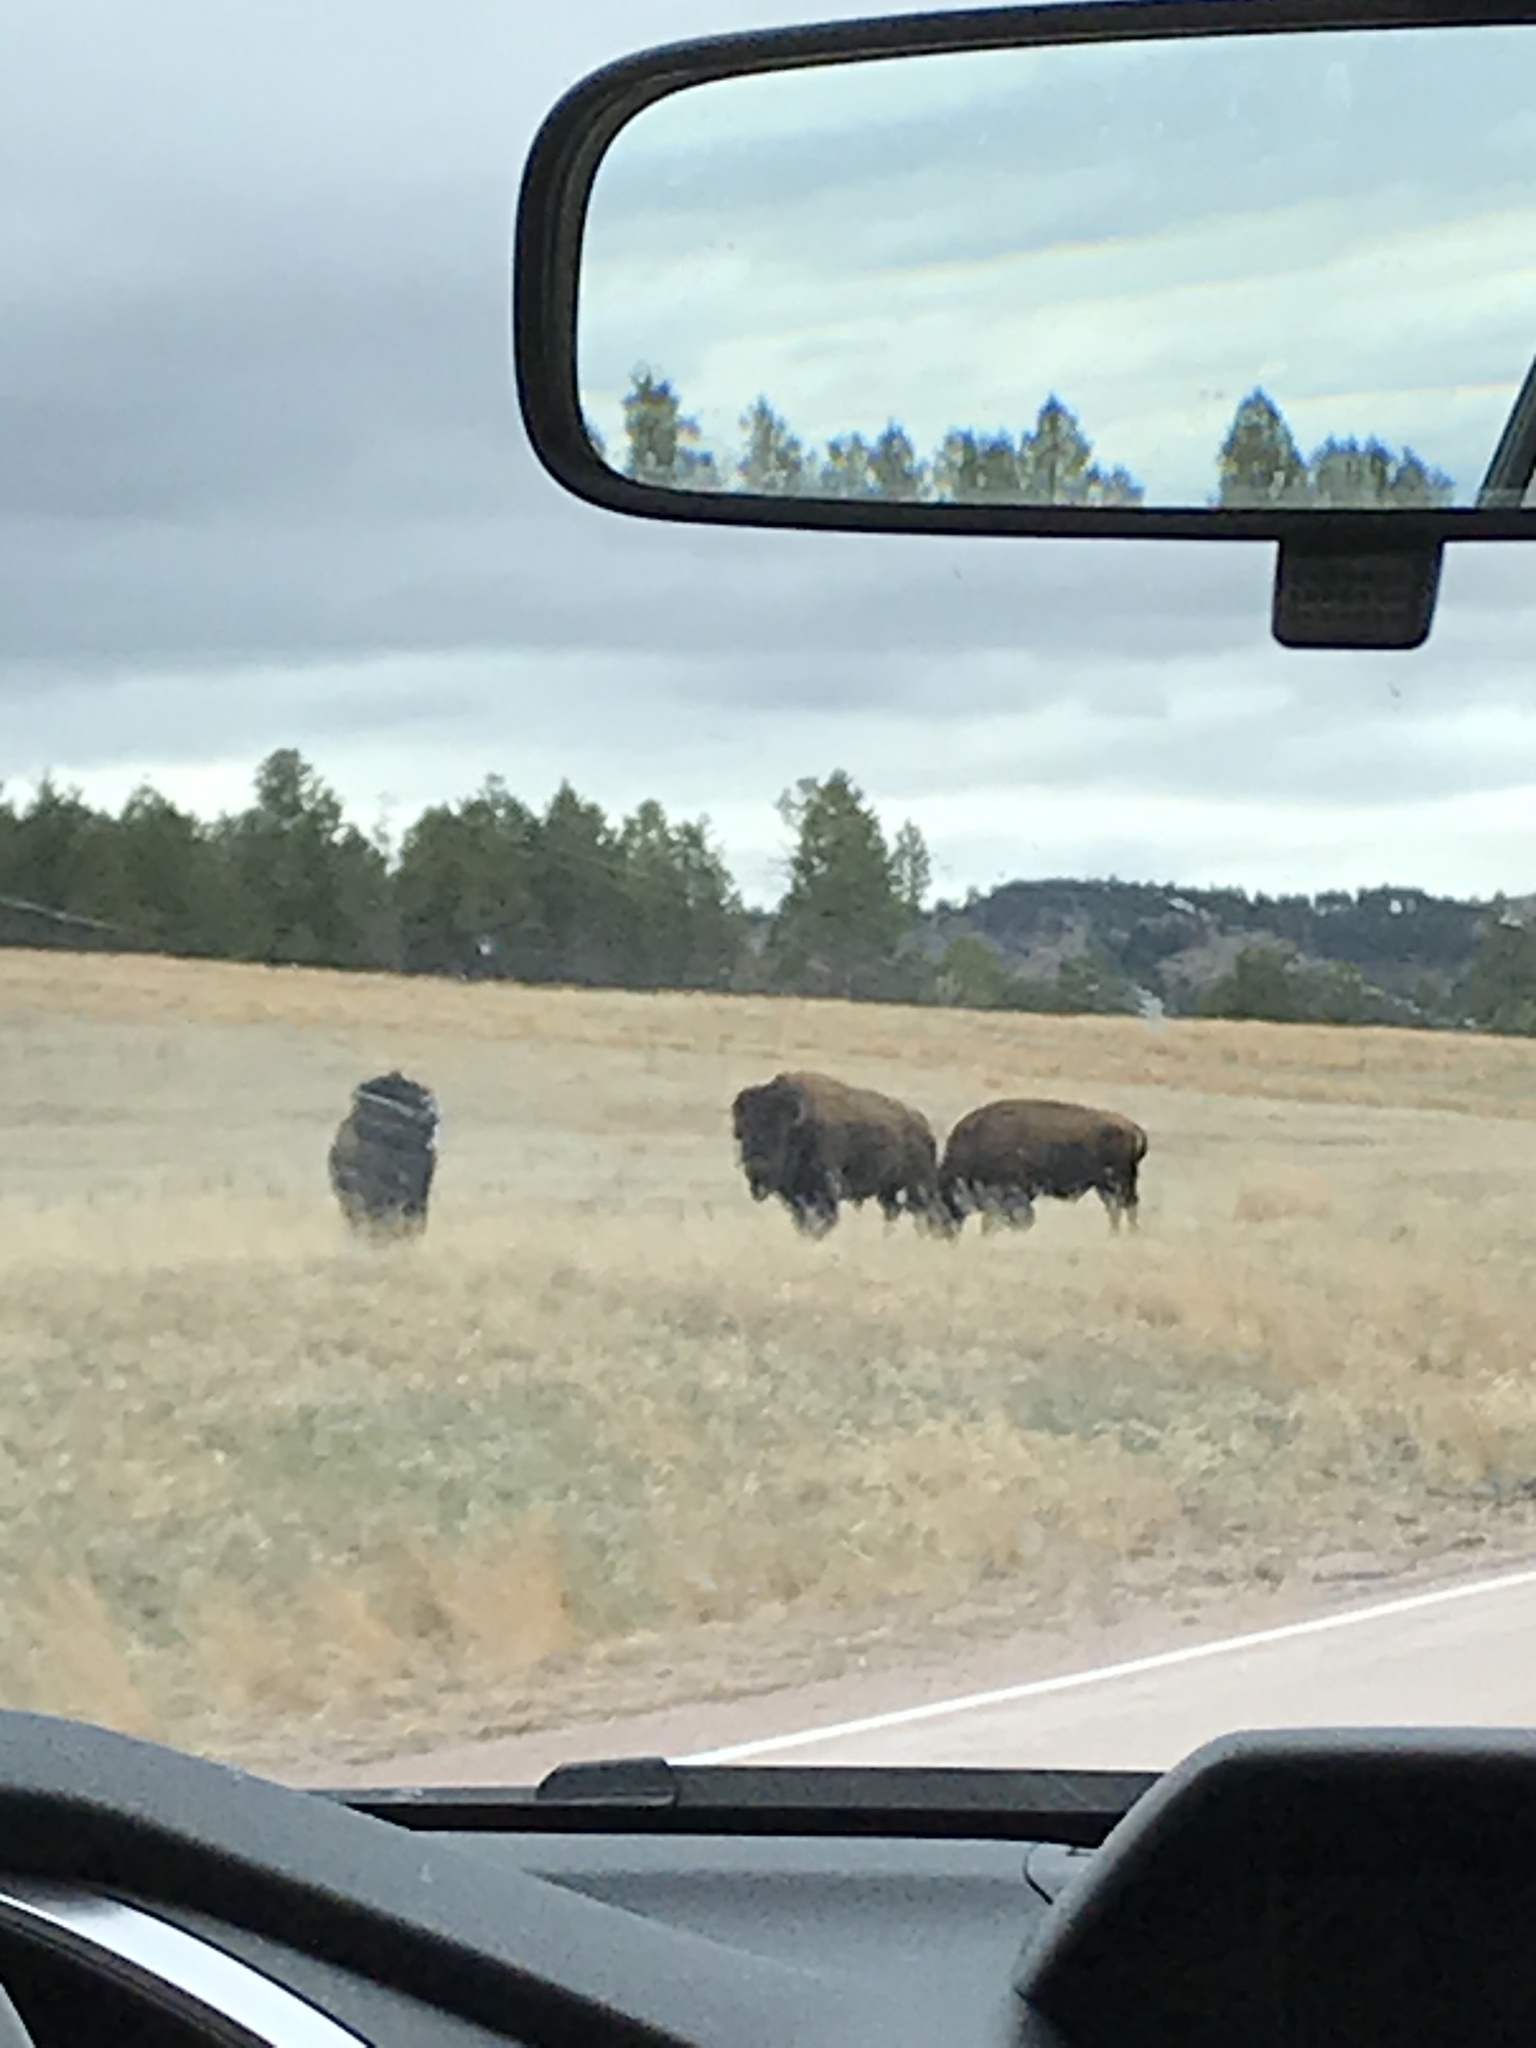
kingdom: Animalia
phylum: Chordata
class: Mammalia
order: Artiodactyla
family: Bovidae
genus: Bison
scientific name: Bison bison
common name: American bison
